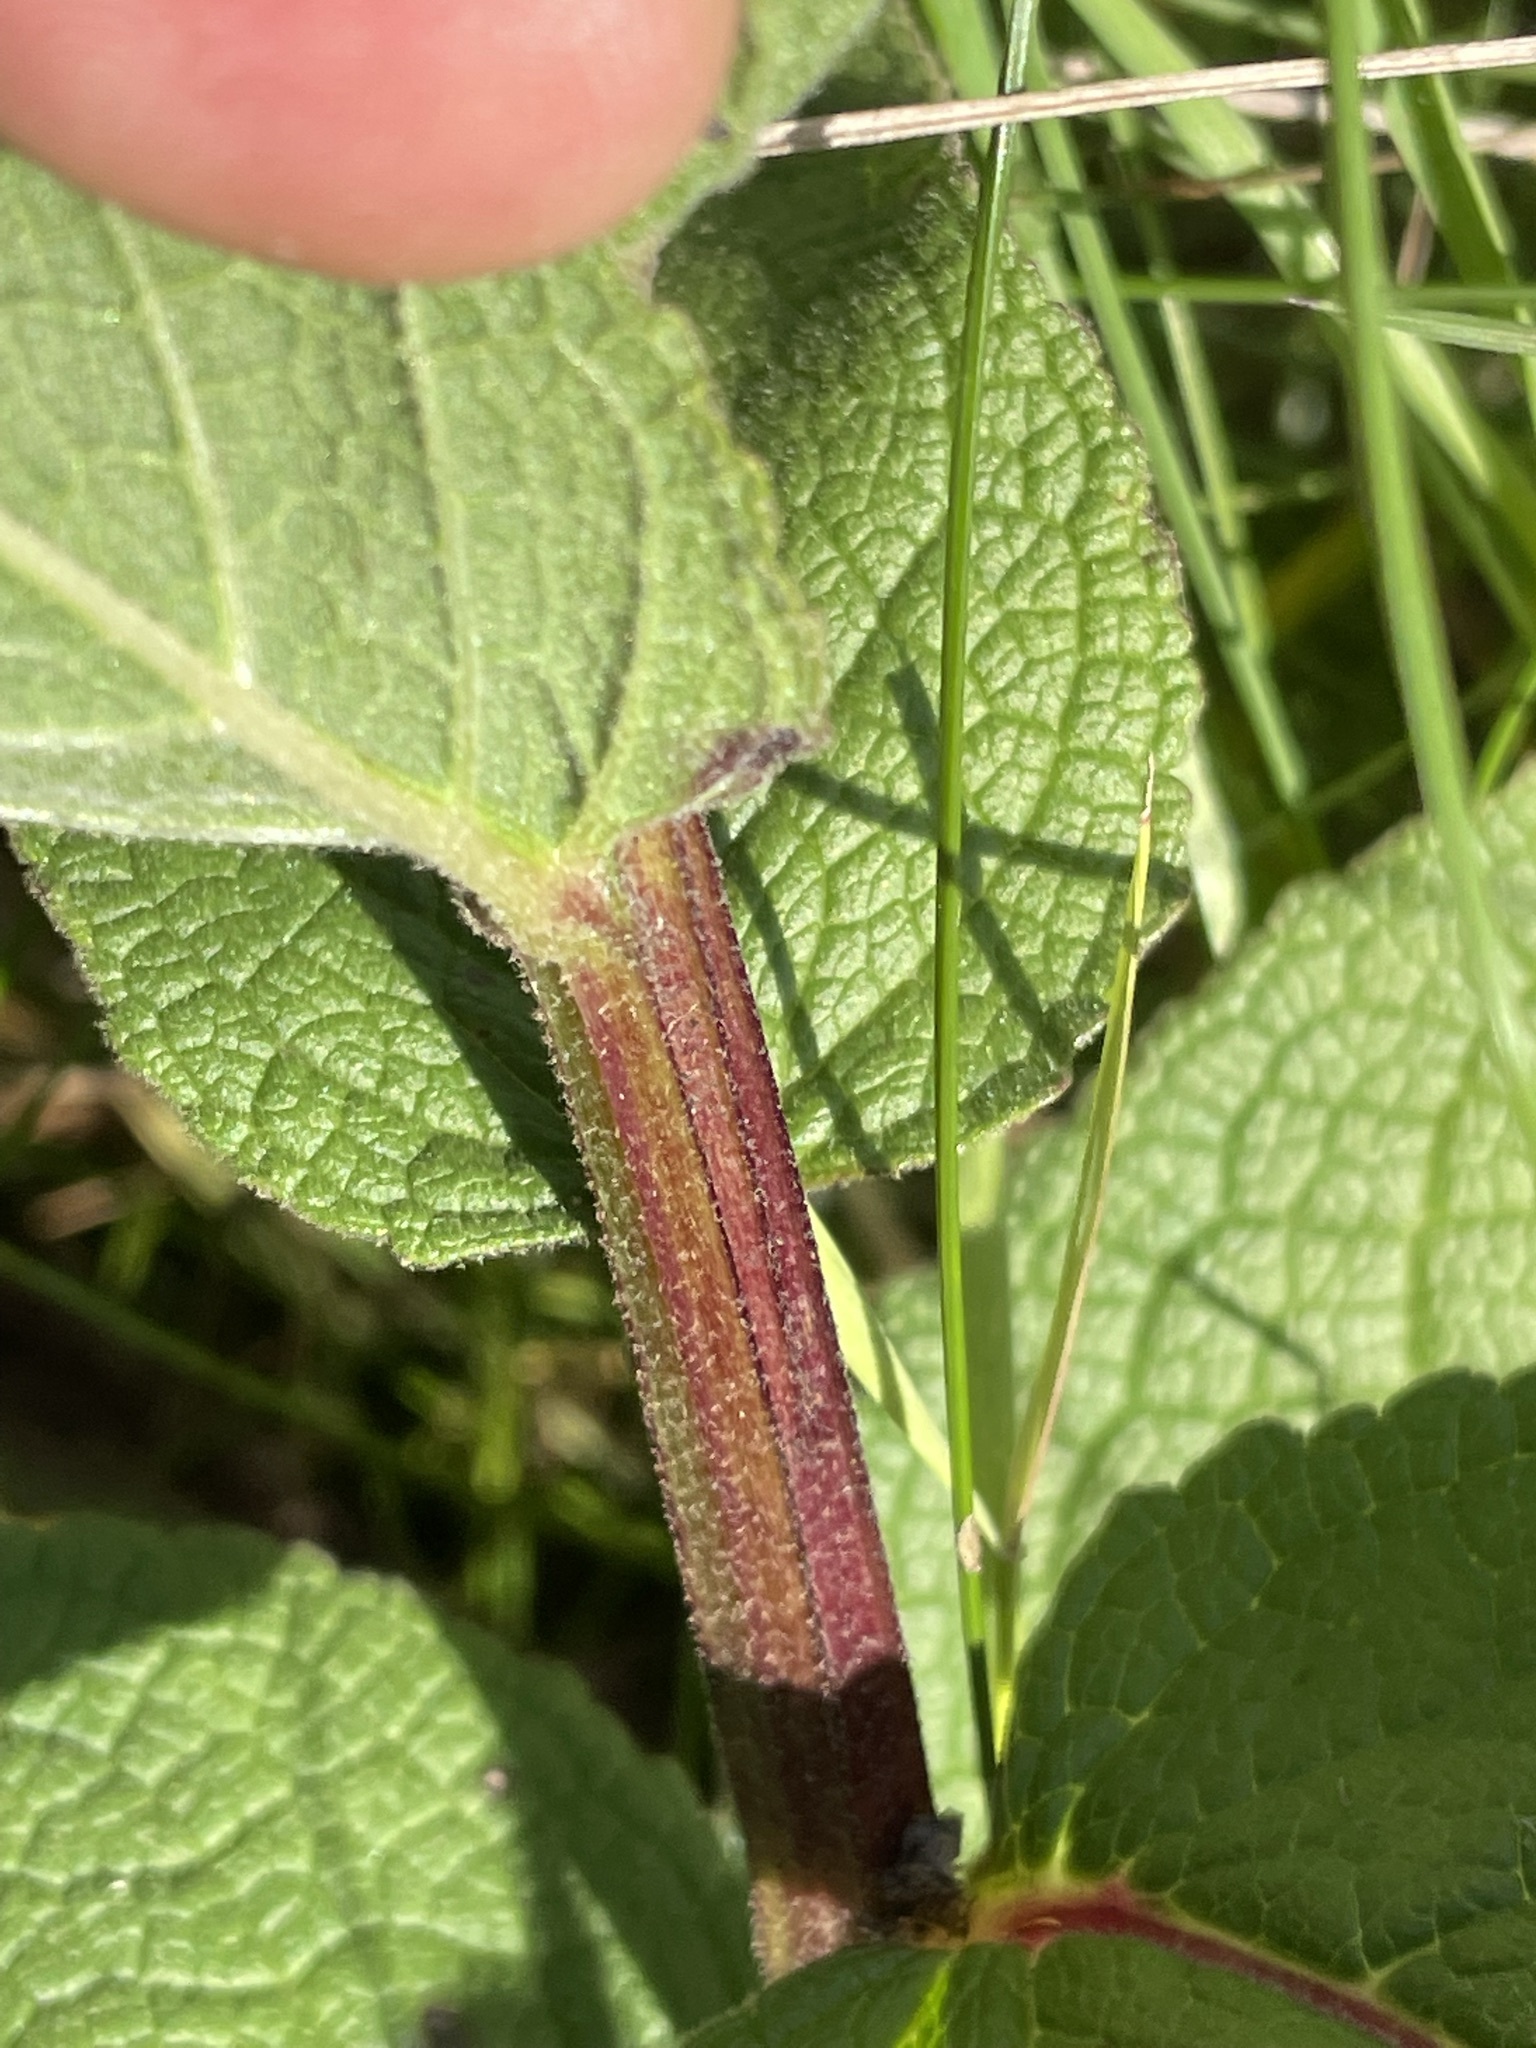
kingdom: Plantae
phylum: Tracheophyta
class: Magnoliopsida
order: Lamiales
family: Scrophulariaceae
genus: Verbascum
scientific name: Verbascum nigrum
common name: Dark mullein
